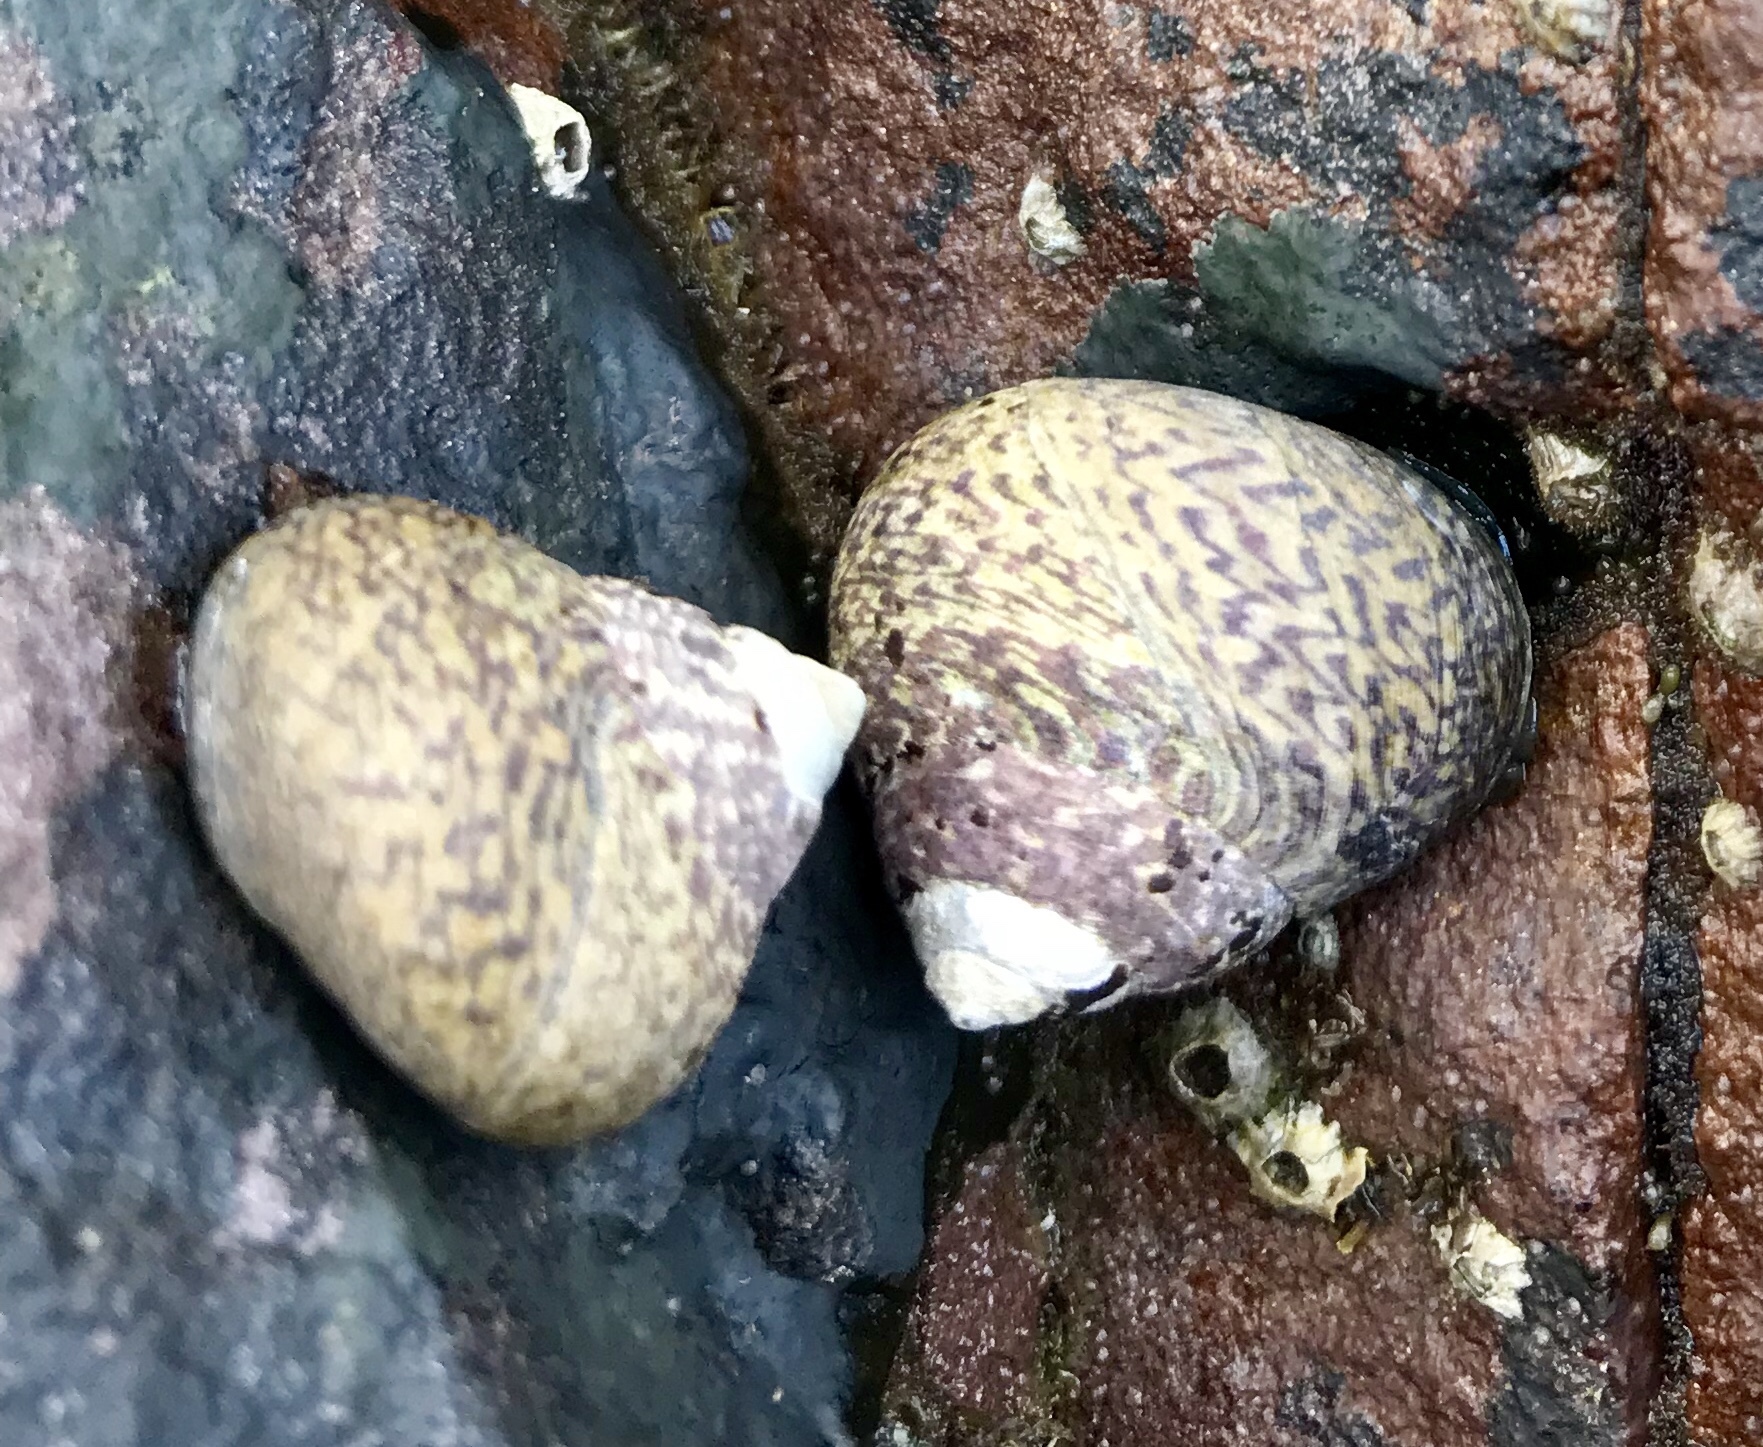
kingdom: Animalia
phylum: Mollusca
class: Gastropoda
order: Trochida
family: Trochidae
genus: Phorcus
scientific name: Phorcus lineatus
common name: Toothed top shell
